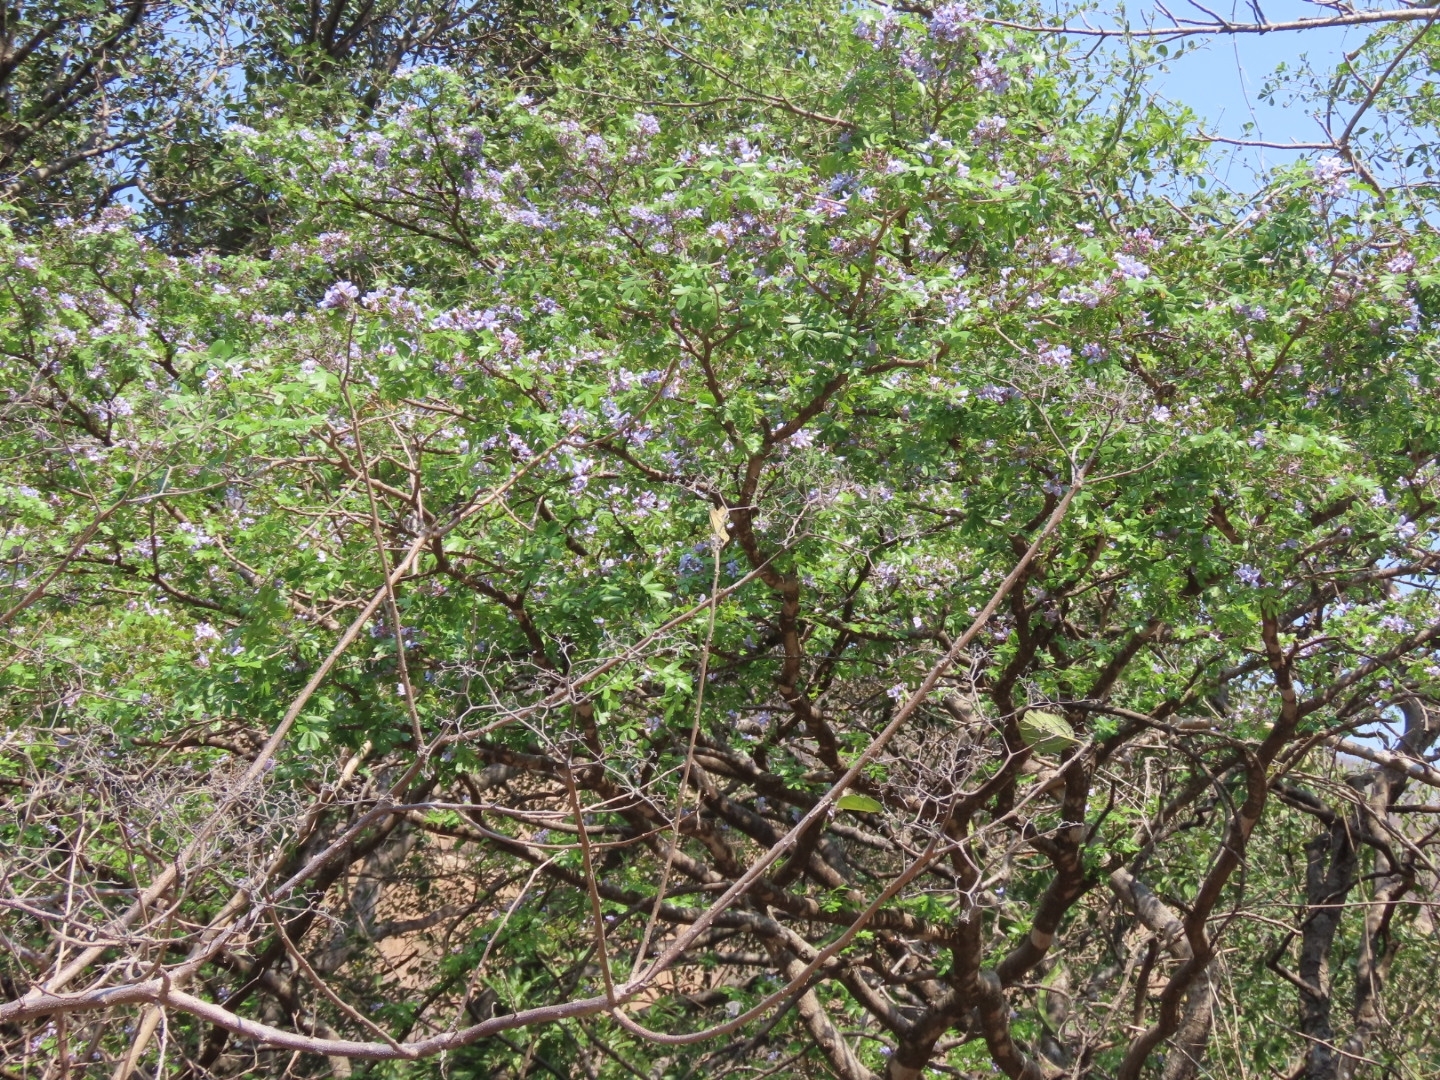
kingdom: Plantae
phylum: Tracheophyta
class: Magnoliopsida
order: Zygophyllales
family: Zygophyllaceae
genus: Guaiacum
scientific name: Guaiacum coulteri
